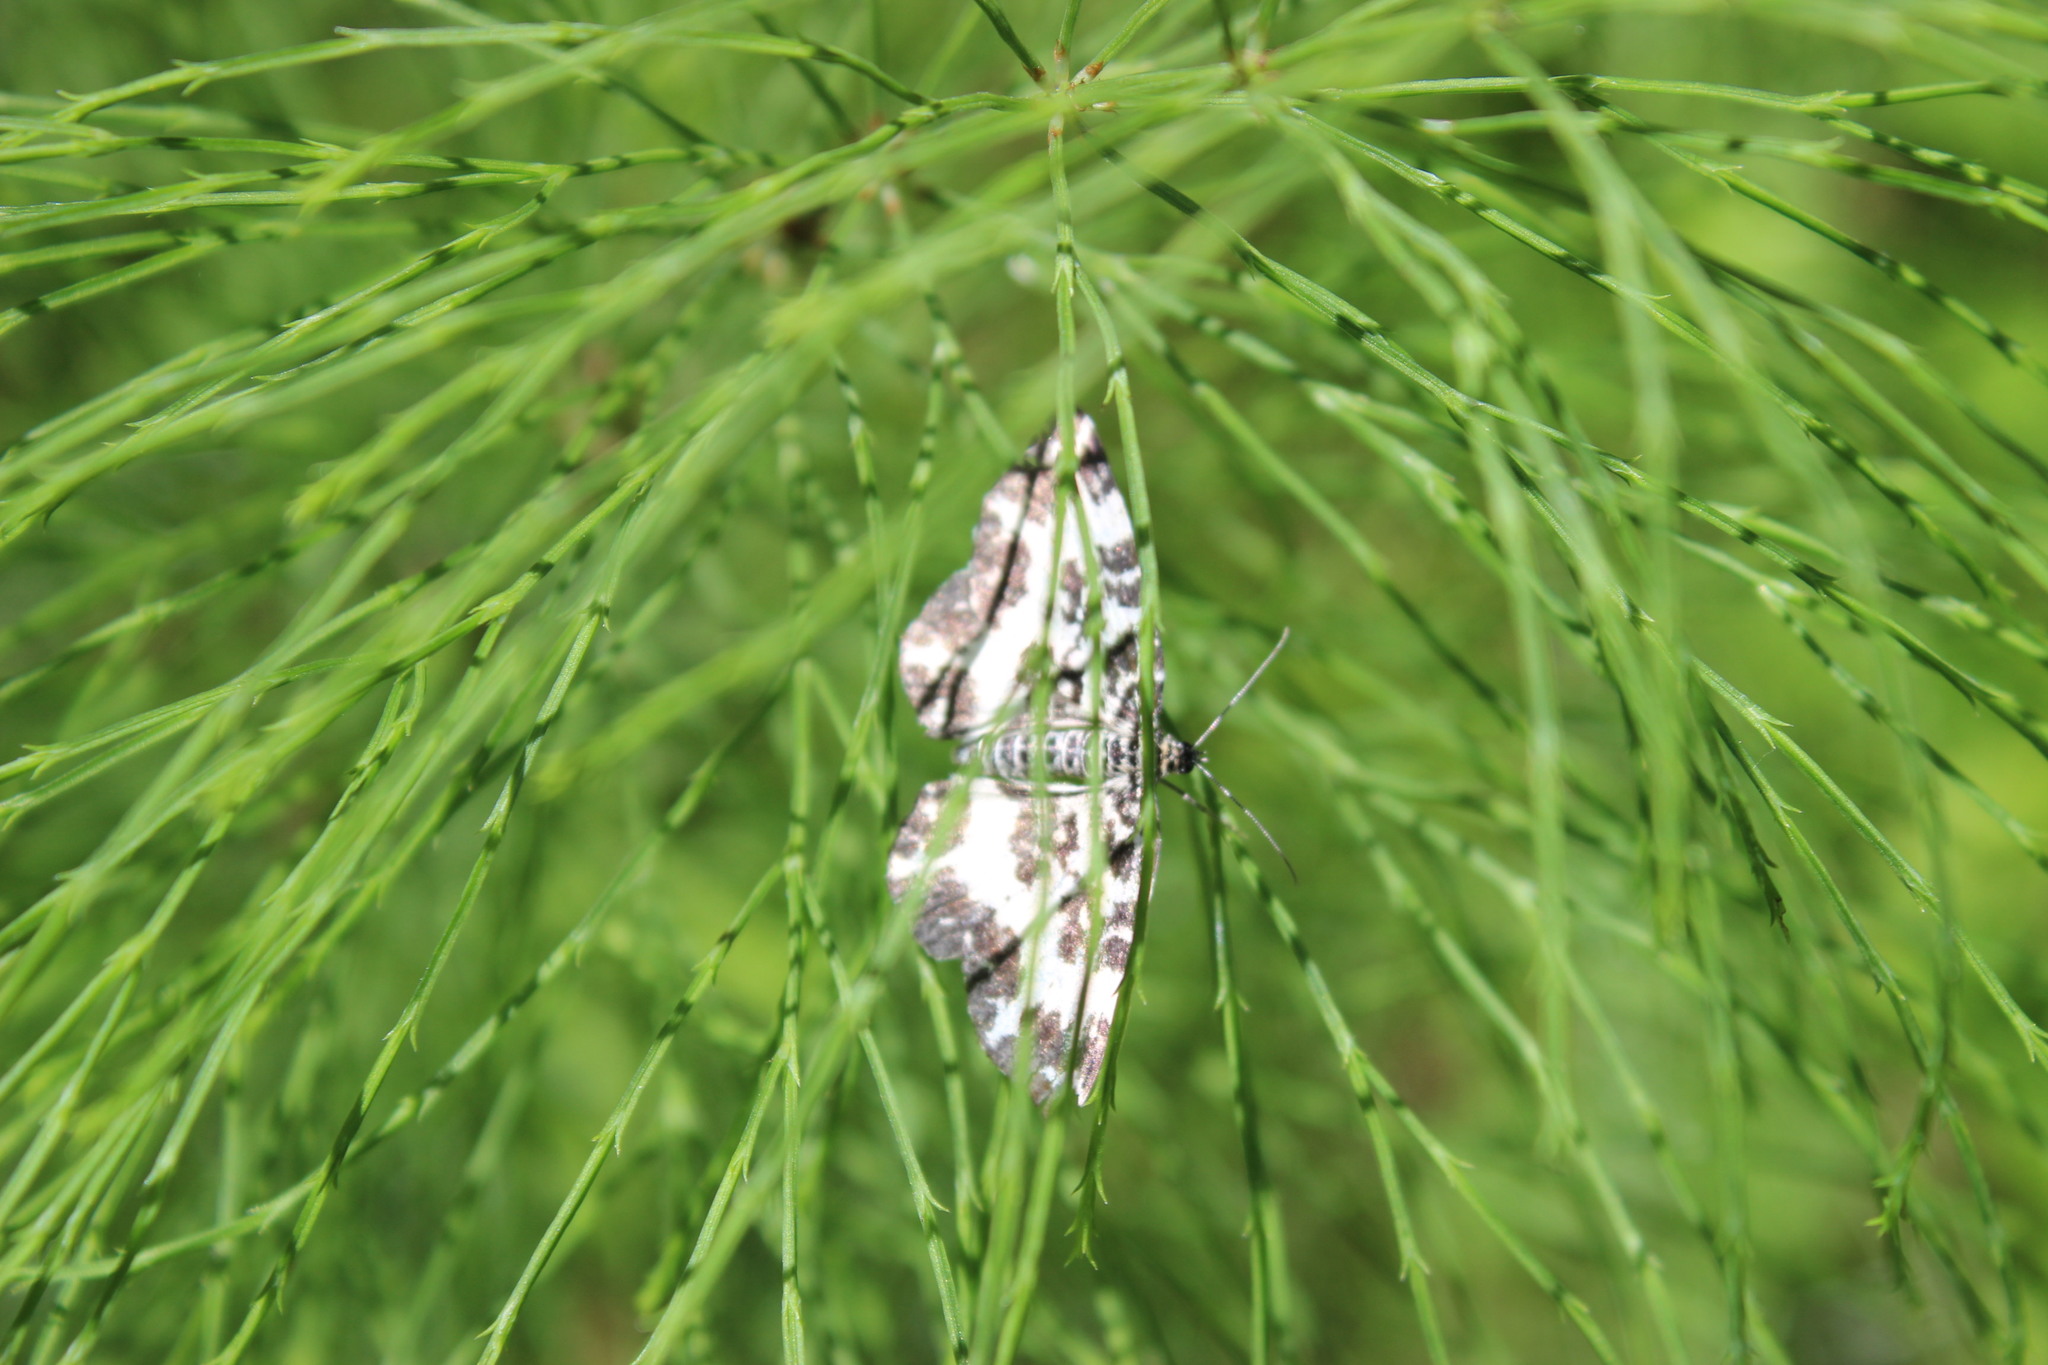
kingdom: Animalia
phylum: Arthropoda
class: Insecta
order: Lepidoptera
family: Geometridae
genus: Rheumaptera
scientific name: Rheumaptera hastata
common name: Argent & sable
